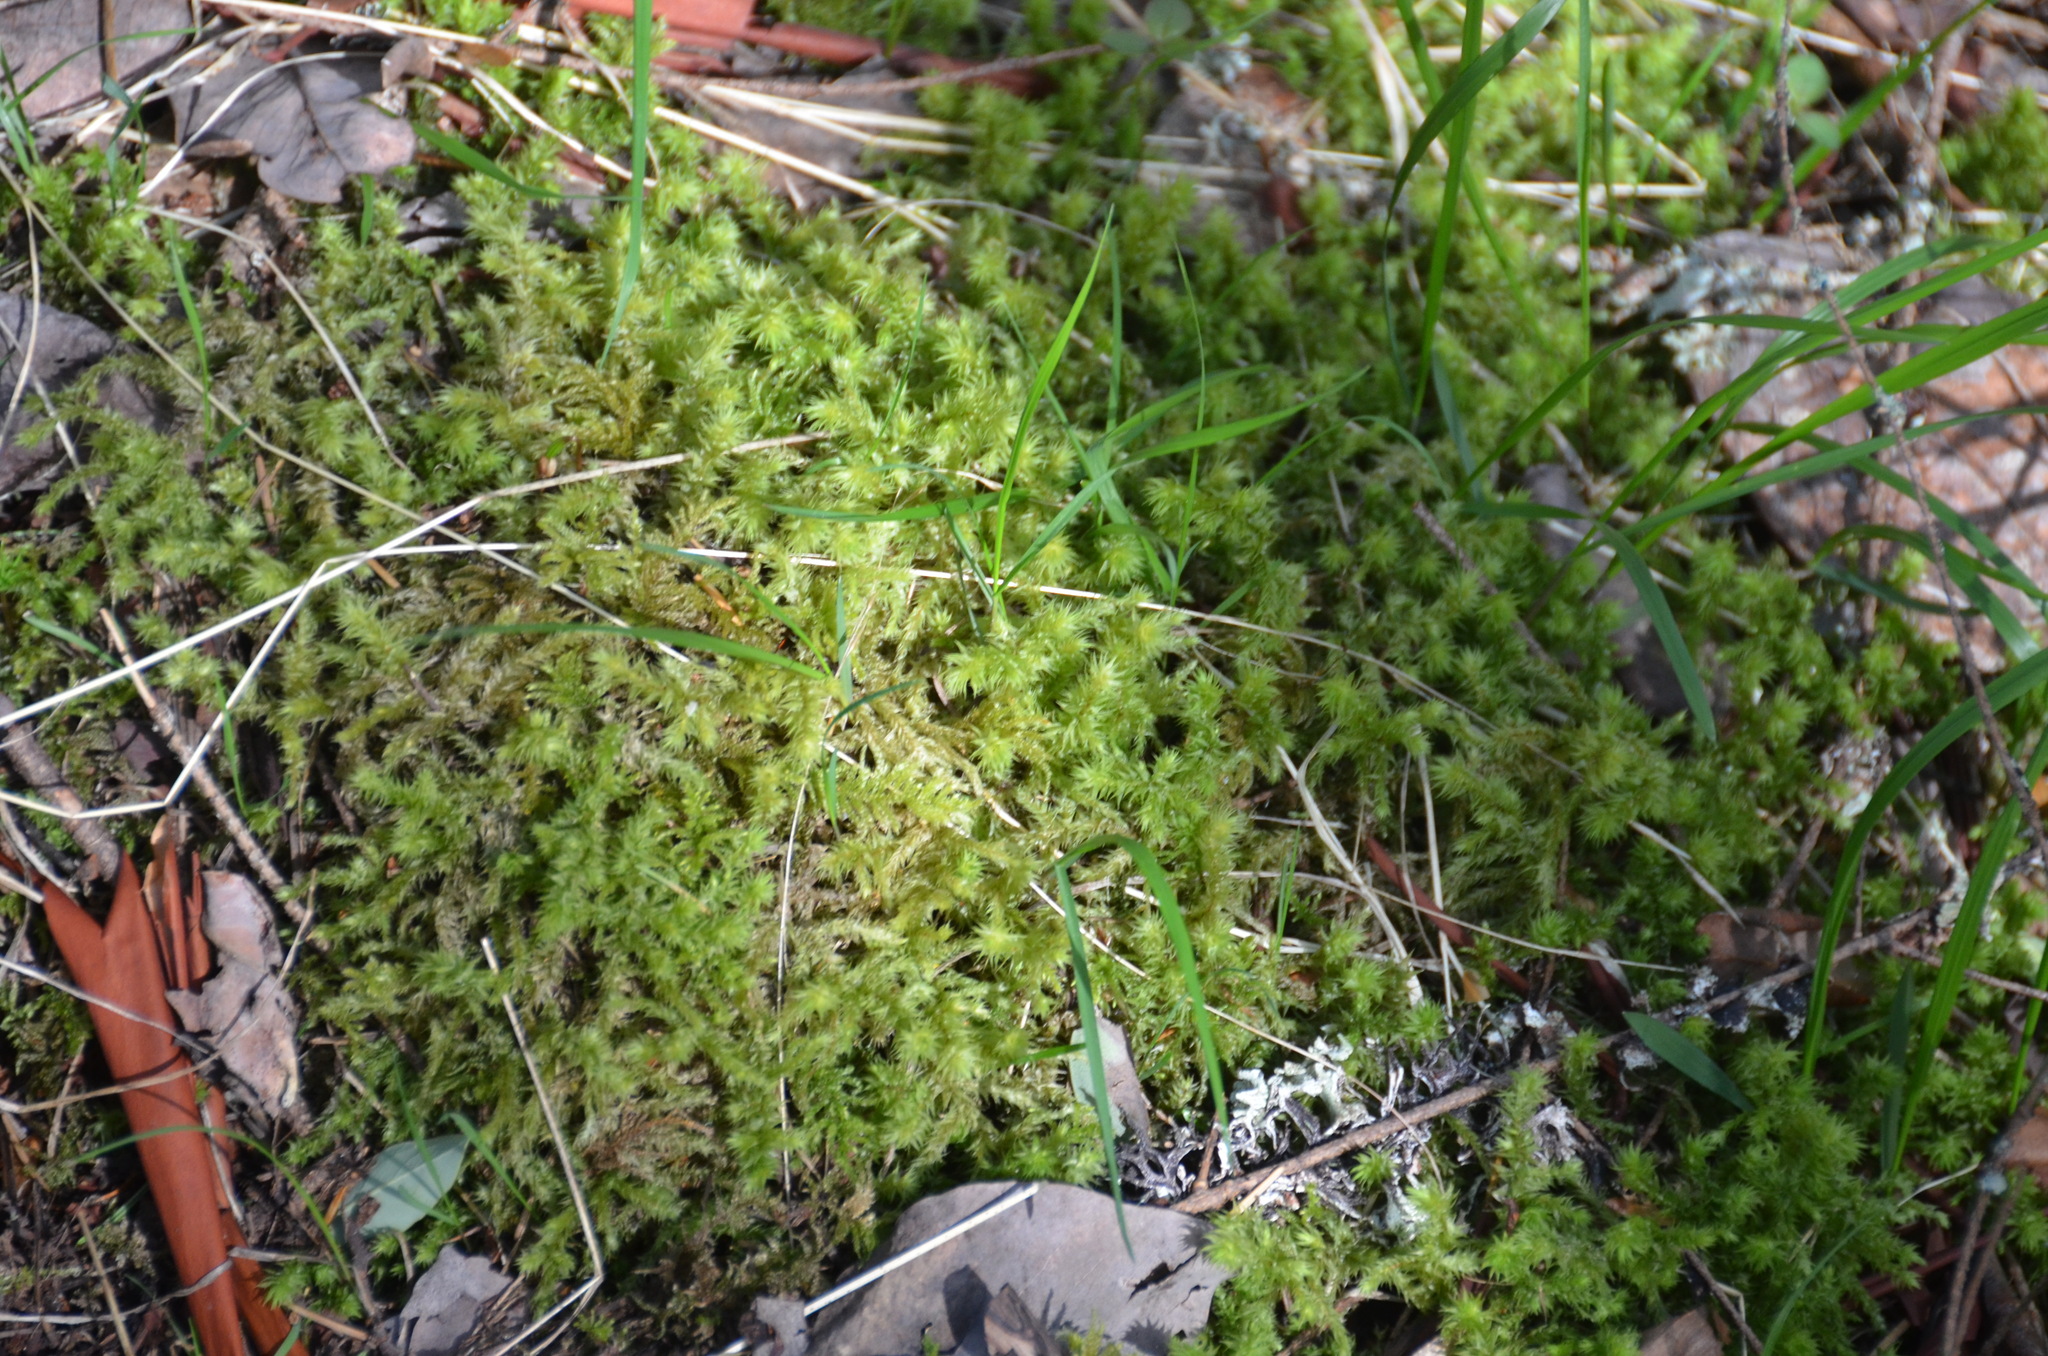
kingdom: Plantae
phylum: Bryophyta
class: Bryopsida
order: Hypnales
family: Hylocomiaceae
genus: Hylocomiadelphus
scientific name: Hylocomiadelphus triquetrus
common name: Rough goose neck moss
